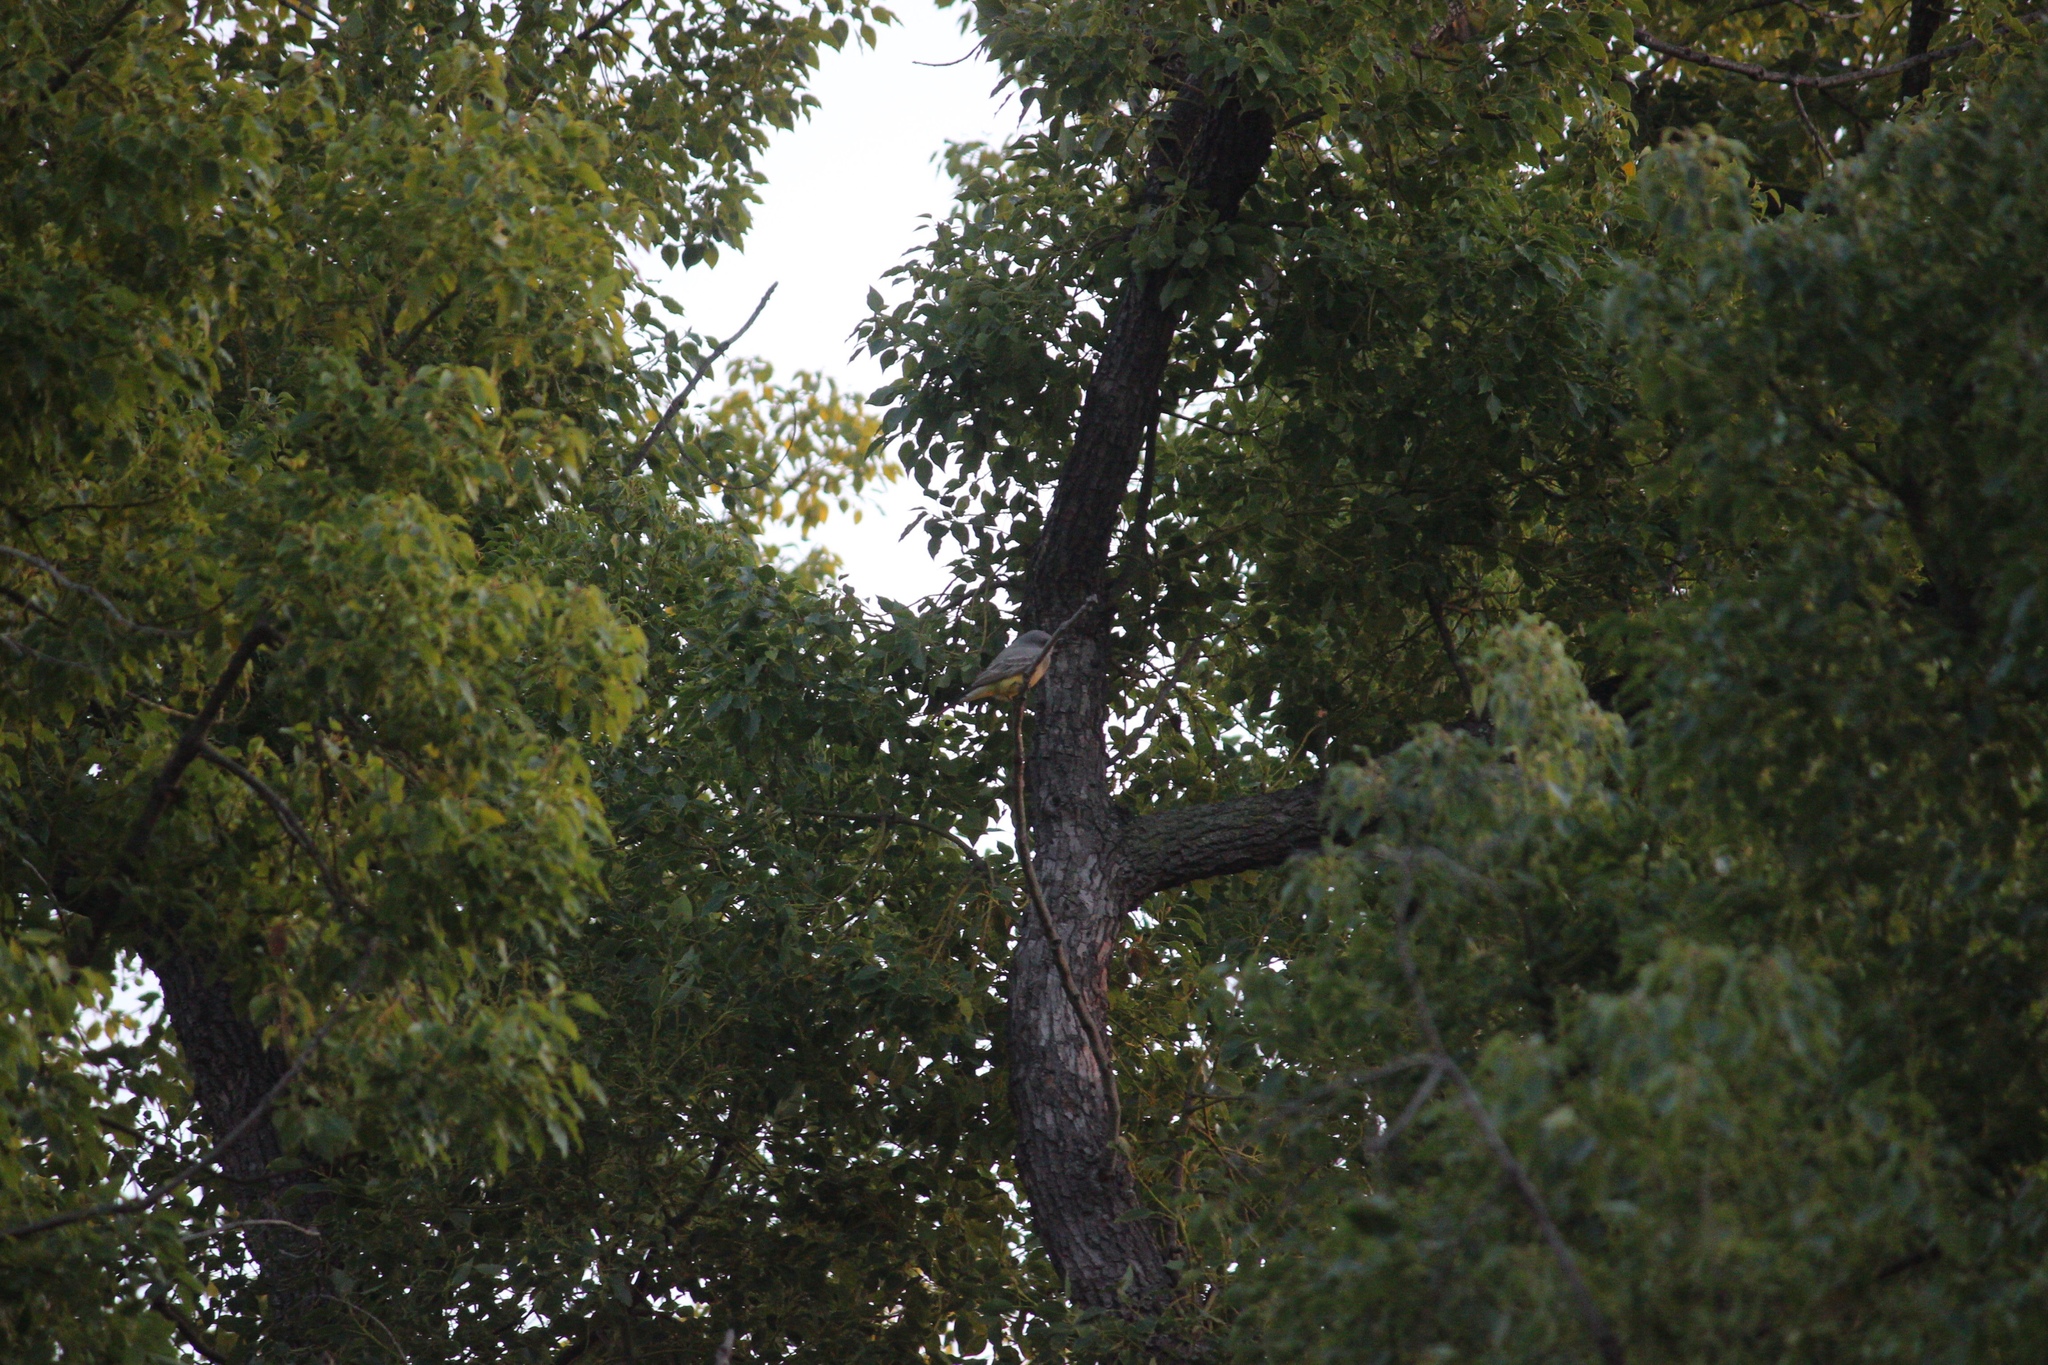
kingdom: Animalia
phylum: Chordata
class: Aves
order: Passeriformes
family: Tyrannidae
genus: Sayornis
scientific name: Sayornis saya
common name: Say's phoebe
